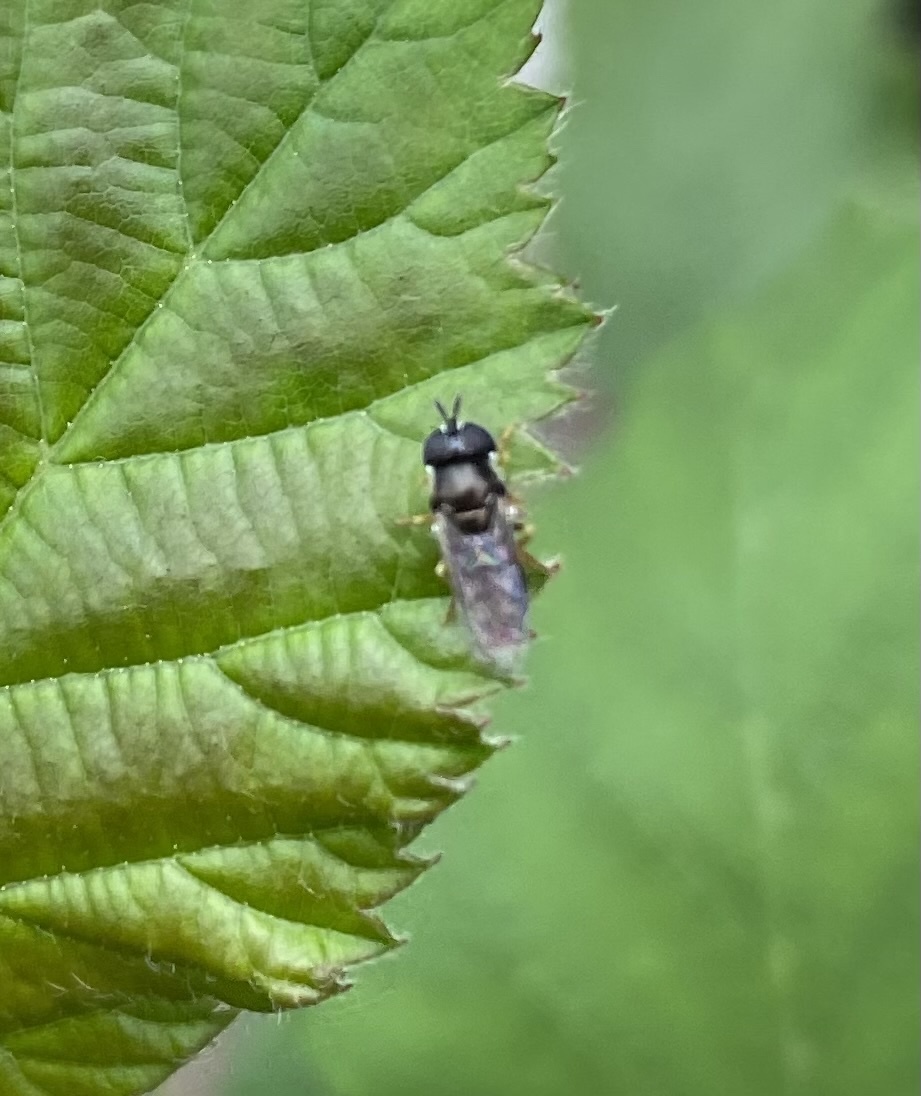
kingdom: Animalia
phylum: Arthropoda
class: Insecta
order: Diptera
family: Syrphidae
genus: Paragus
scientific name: Paragus
